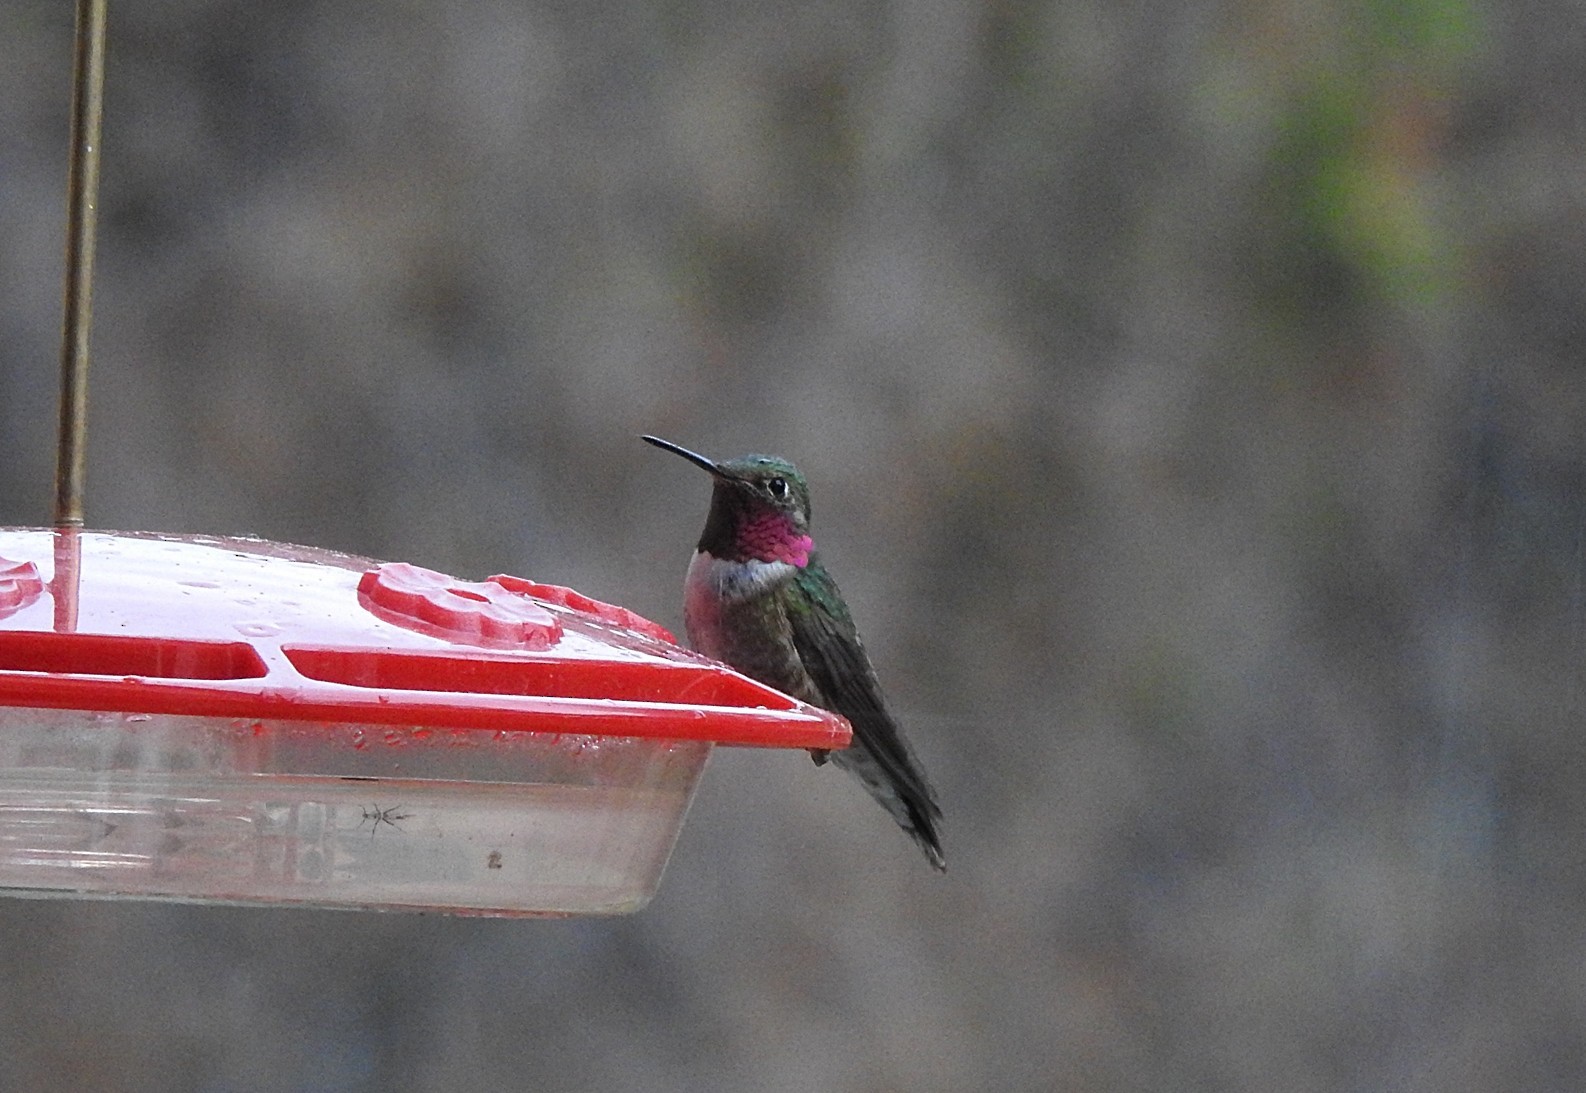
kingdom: Animalia
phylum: Chordata
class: Aves
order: Apodiformes
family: Trochilidae
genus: Selasphorus
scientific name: Selasphorus platycercus
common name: Broad-tailed hummingbird
